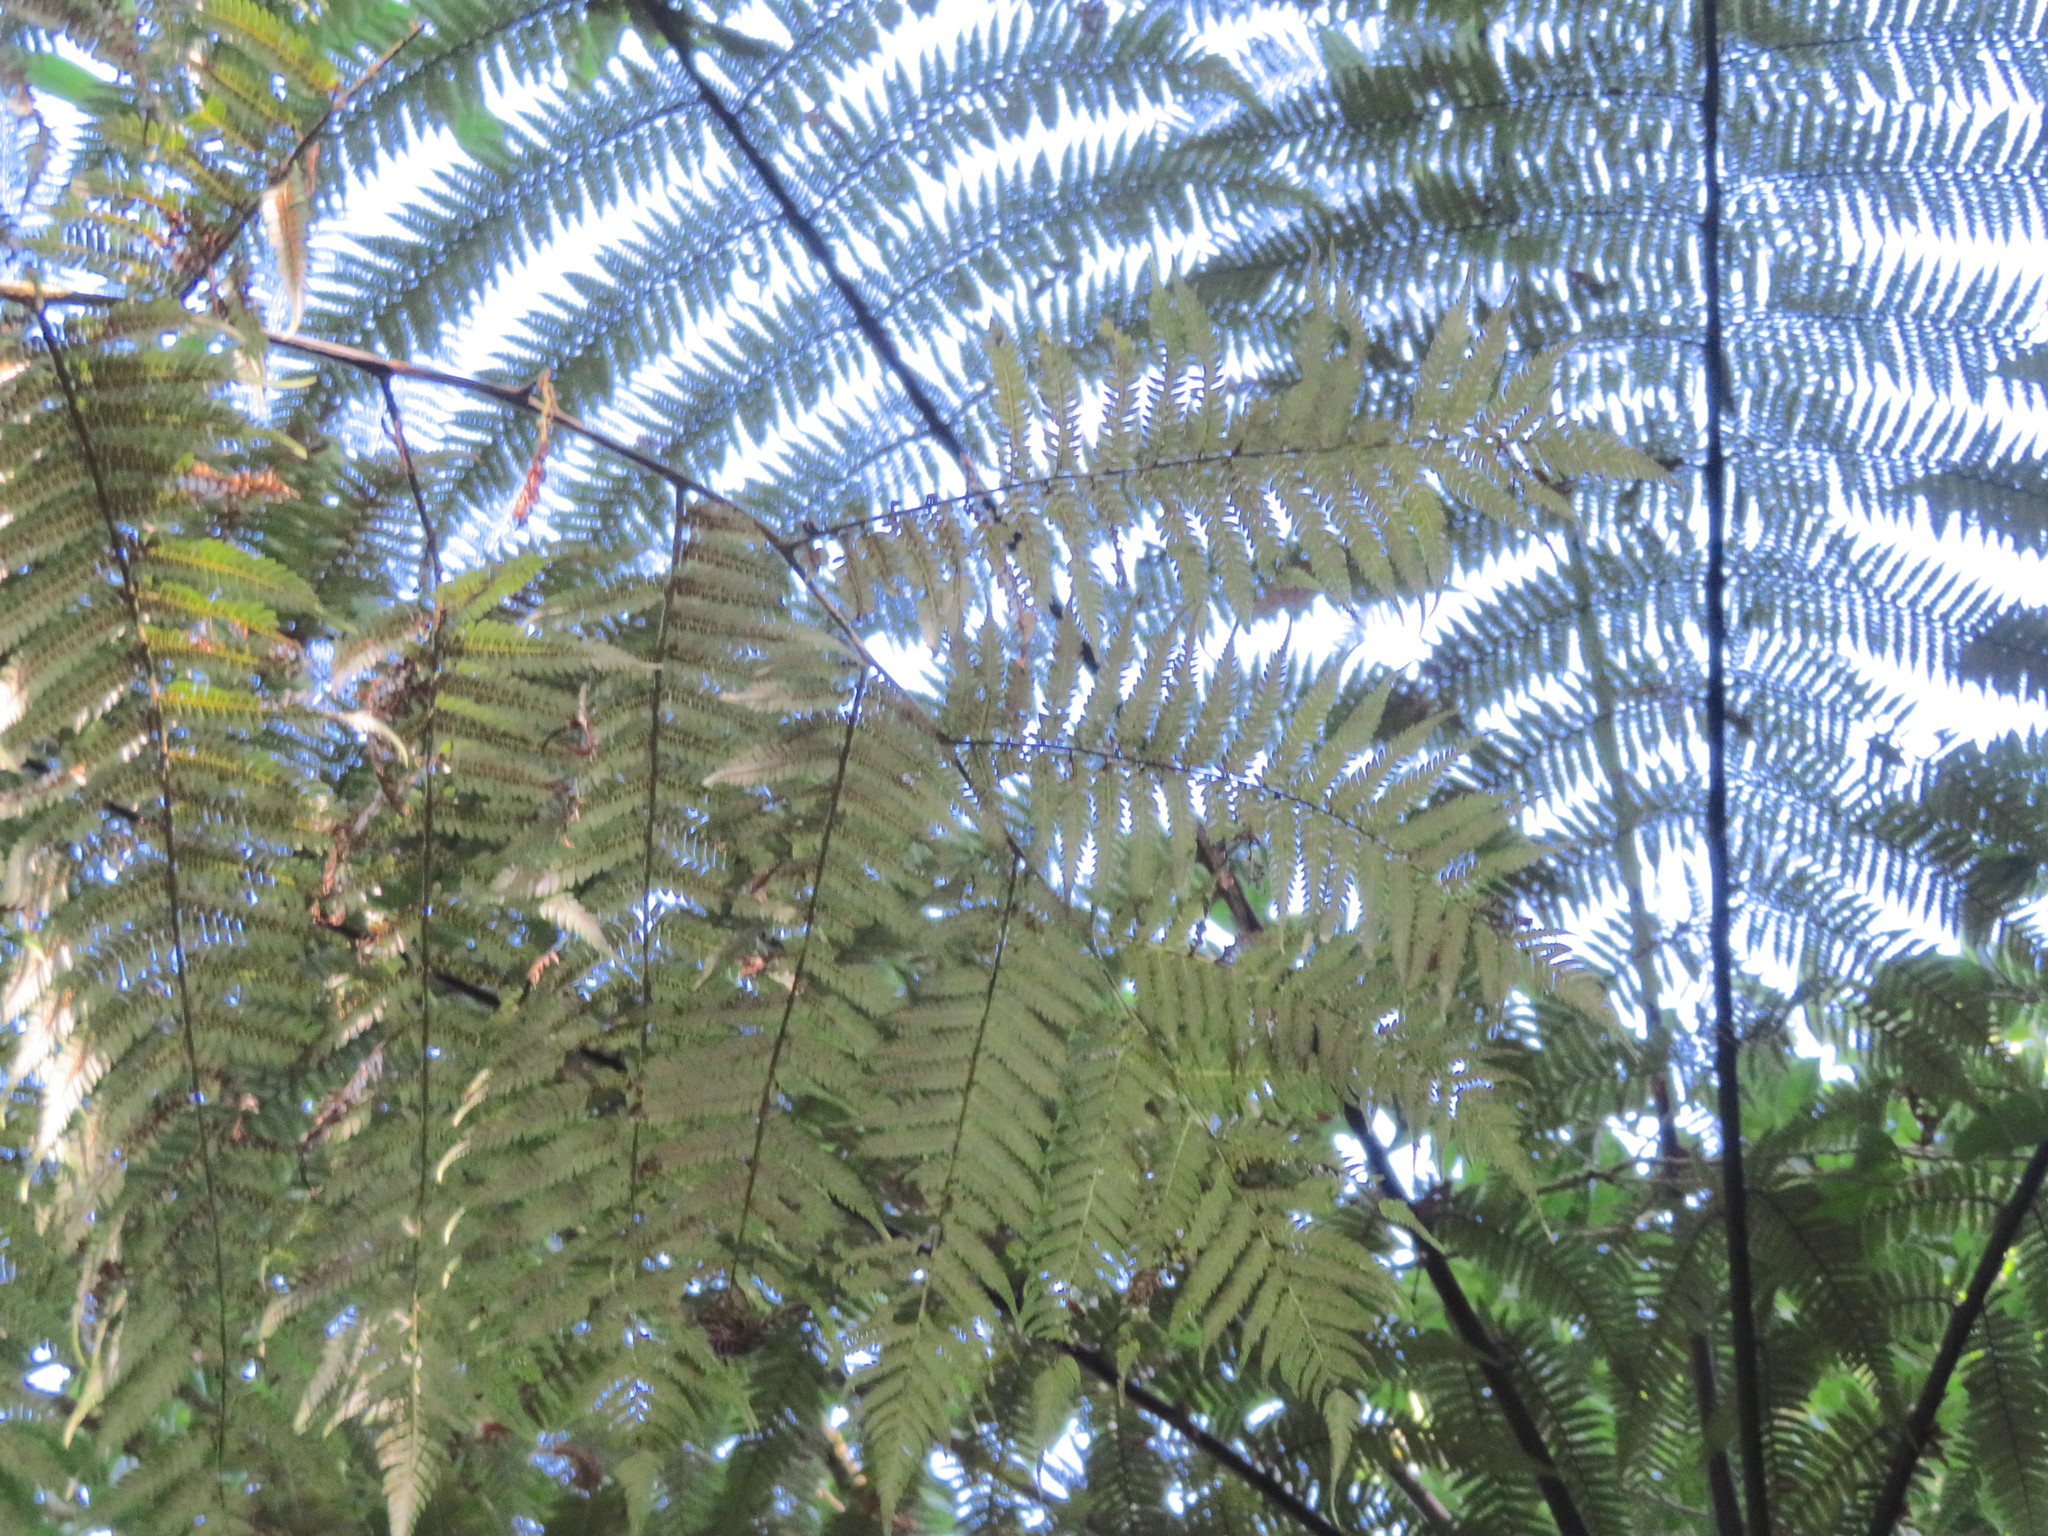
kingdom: Plantae
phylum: Tracheophyta
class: Polypodiopsida
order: Cyatheales
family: Dicksoniaceae
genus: Dicksonia
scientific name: Dicksonia squarrosa
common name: Hard treefern
